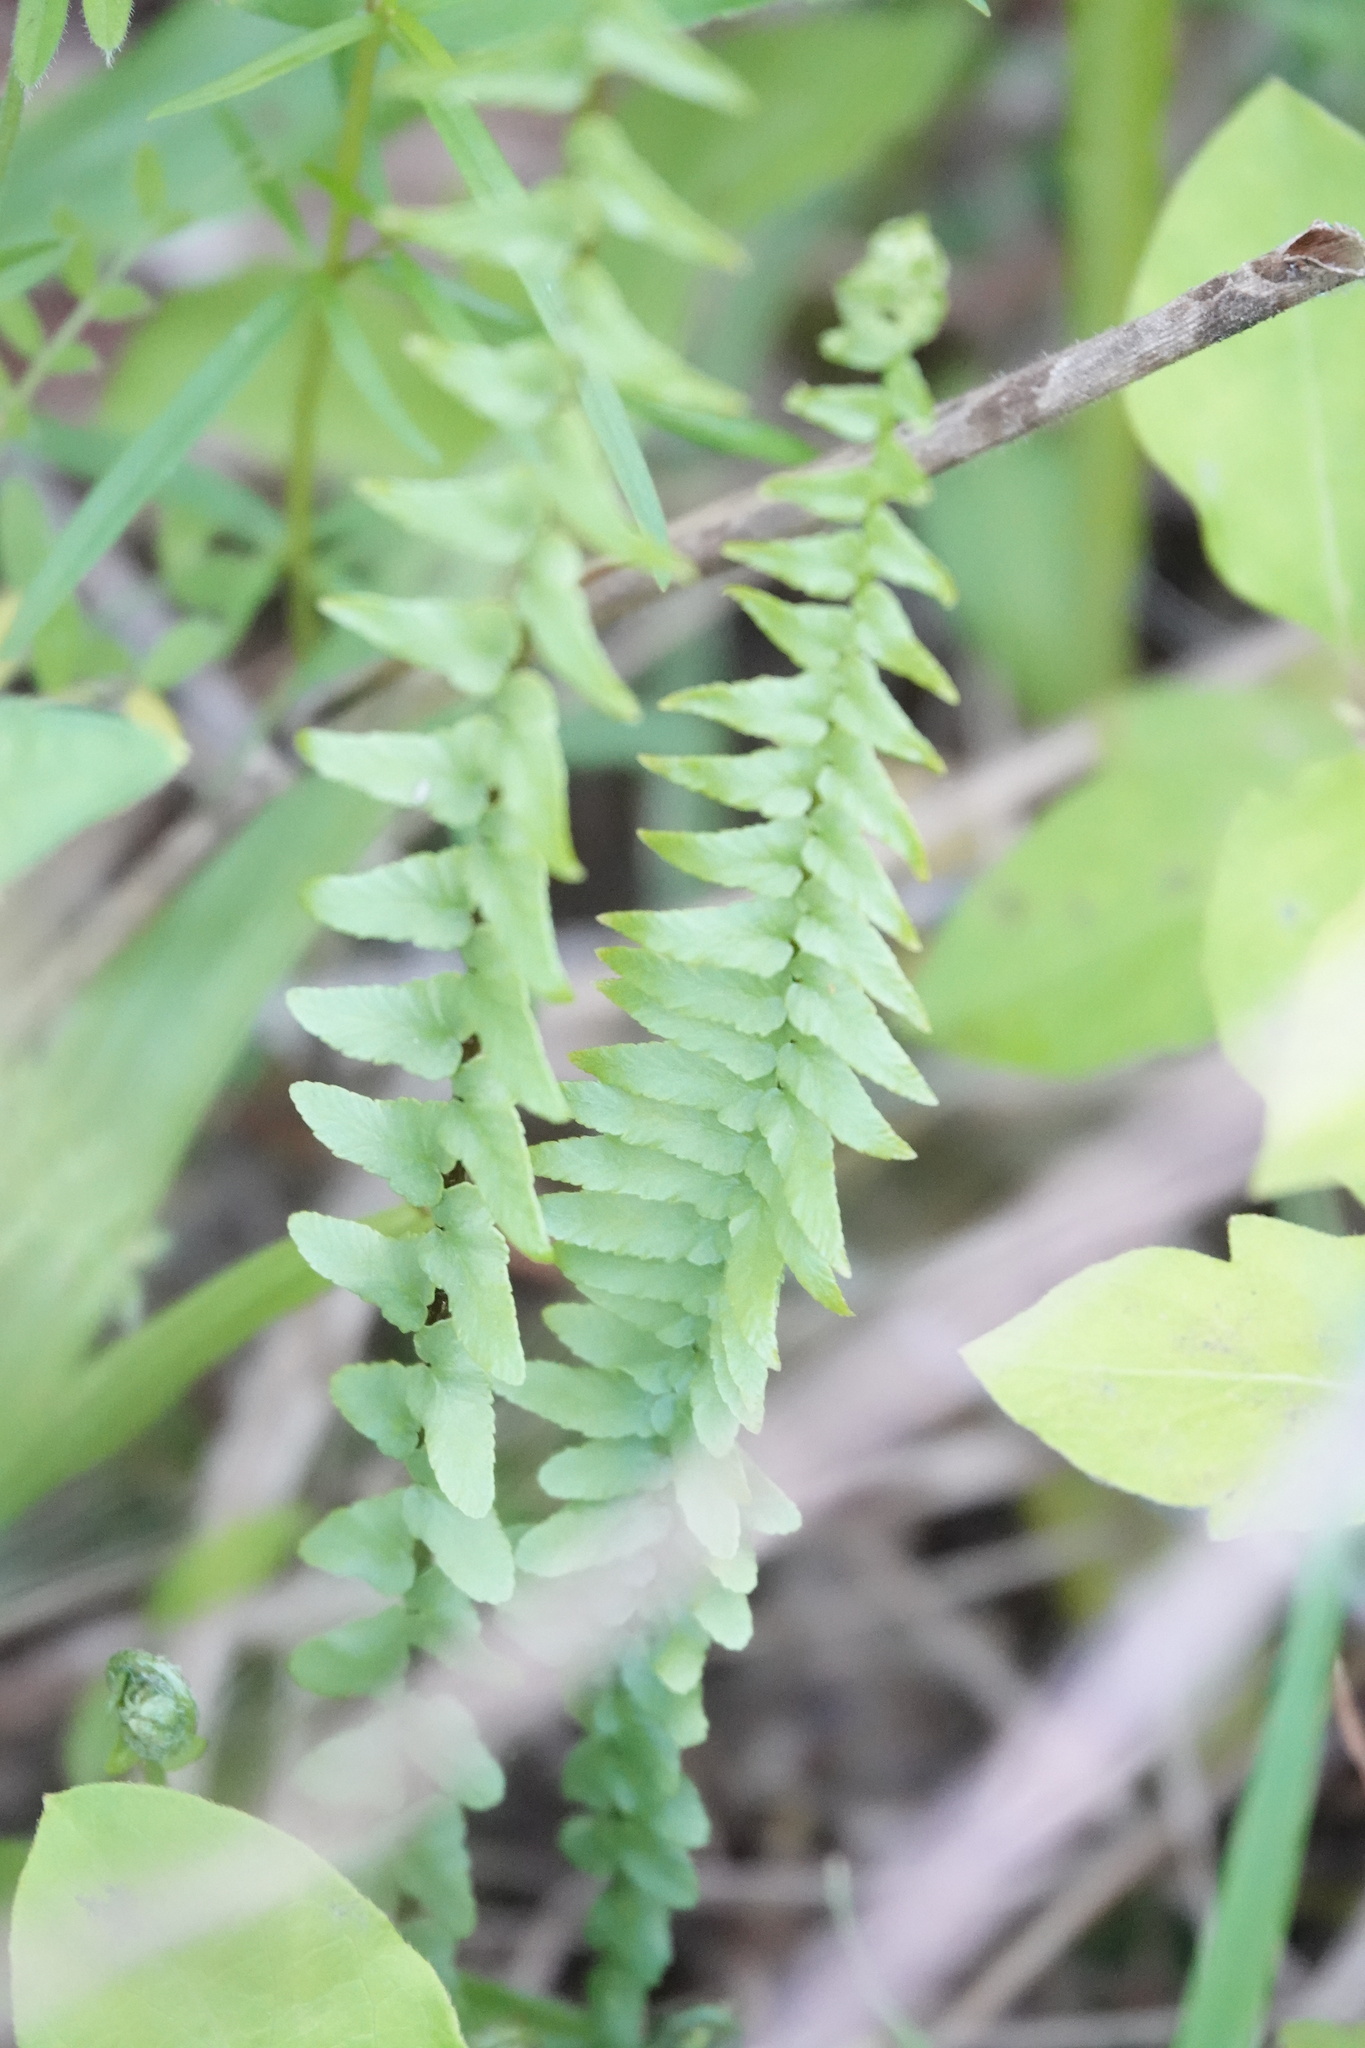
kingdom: Plantae
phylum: Tracheophyta
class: Polypodiopsida
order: Polypodiales
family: Aspleniaceae
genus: Asplenium
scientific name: Asplenium platyneuron
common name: Ebony spleenwort
